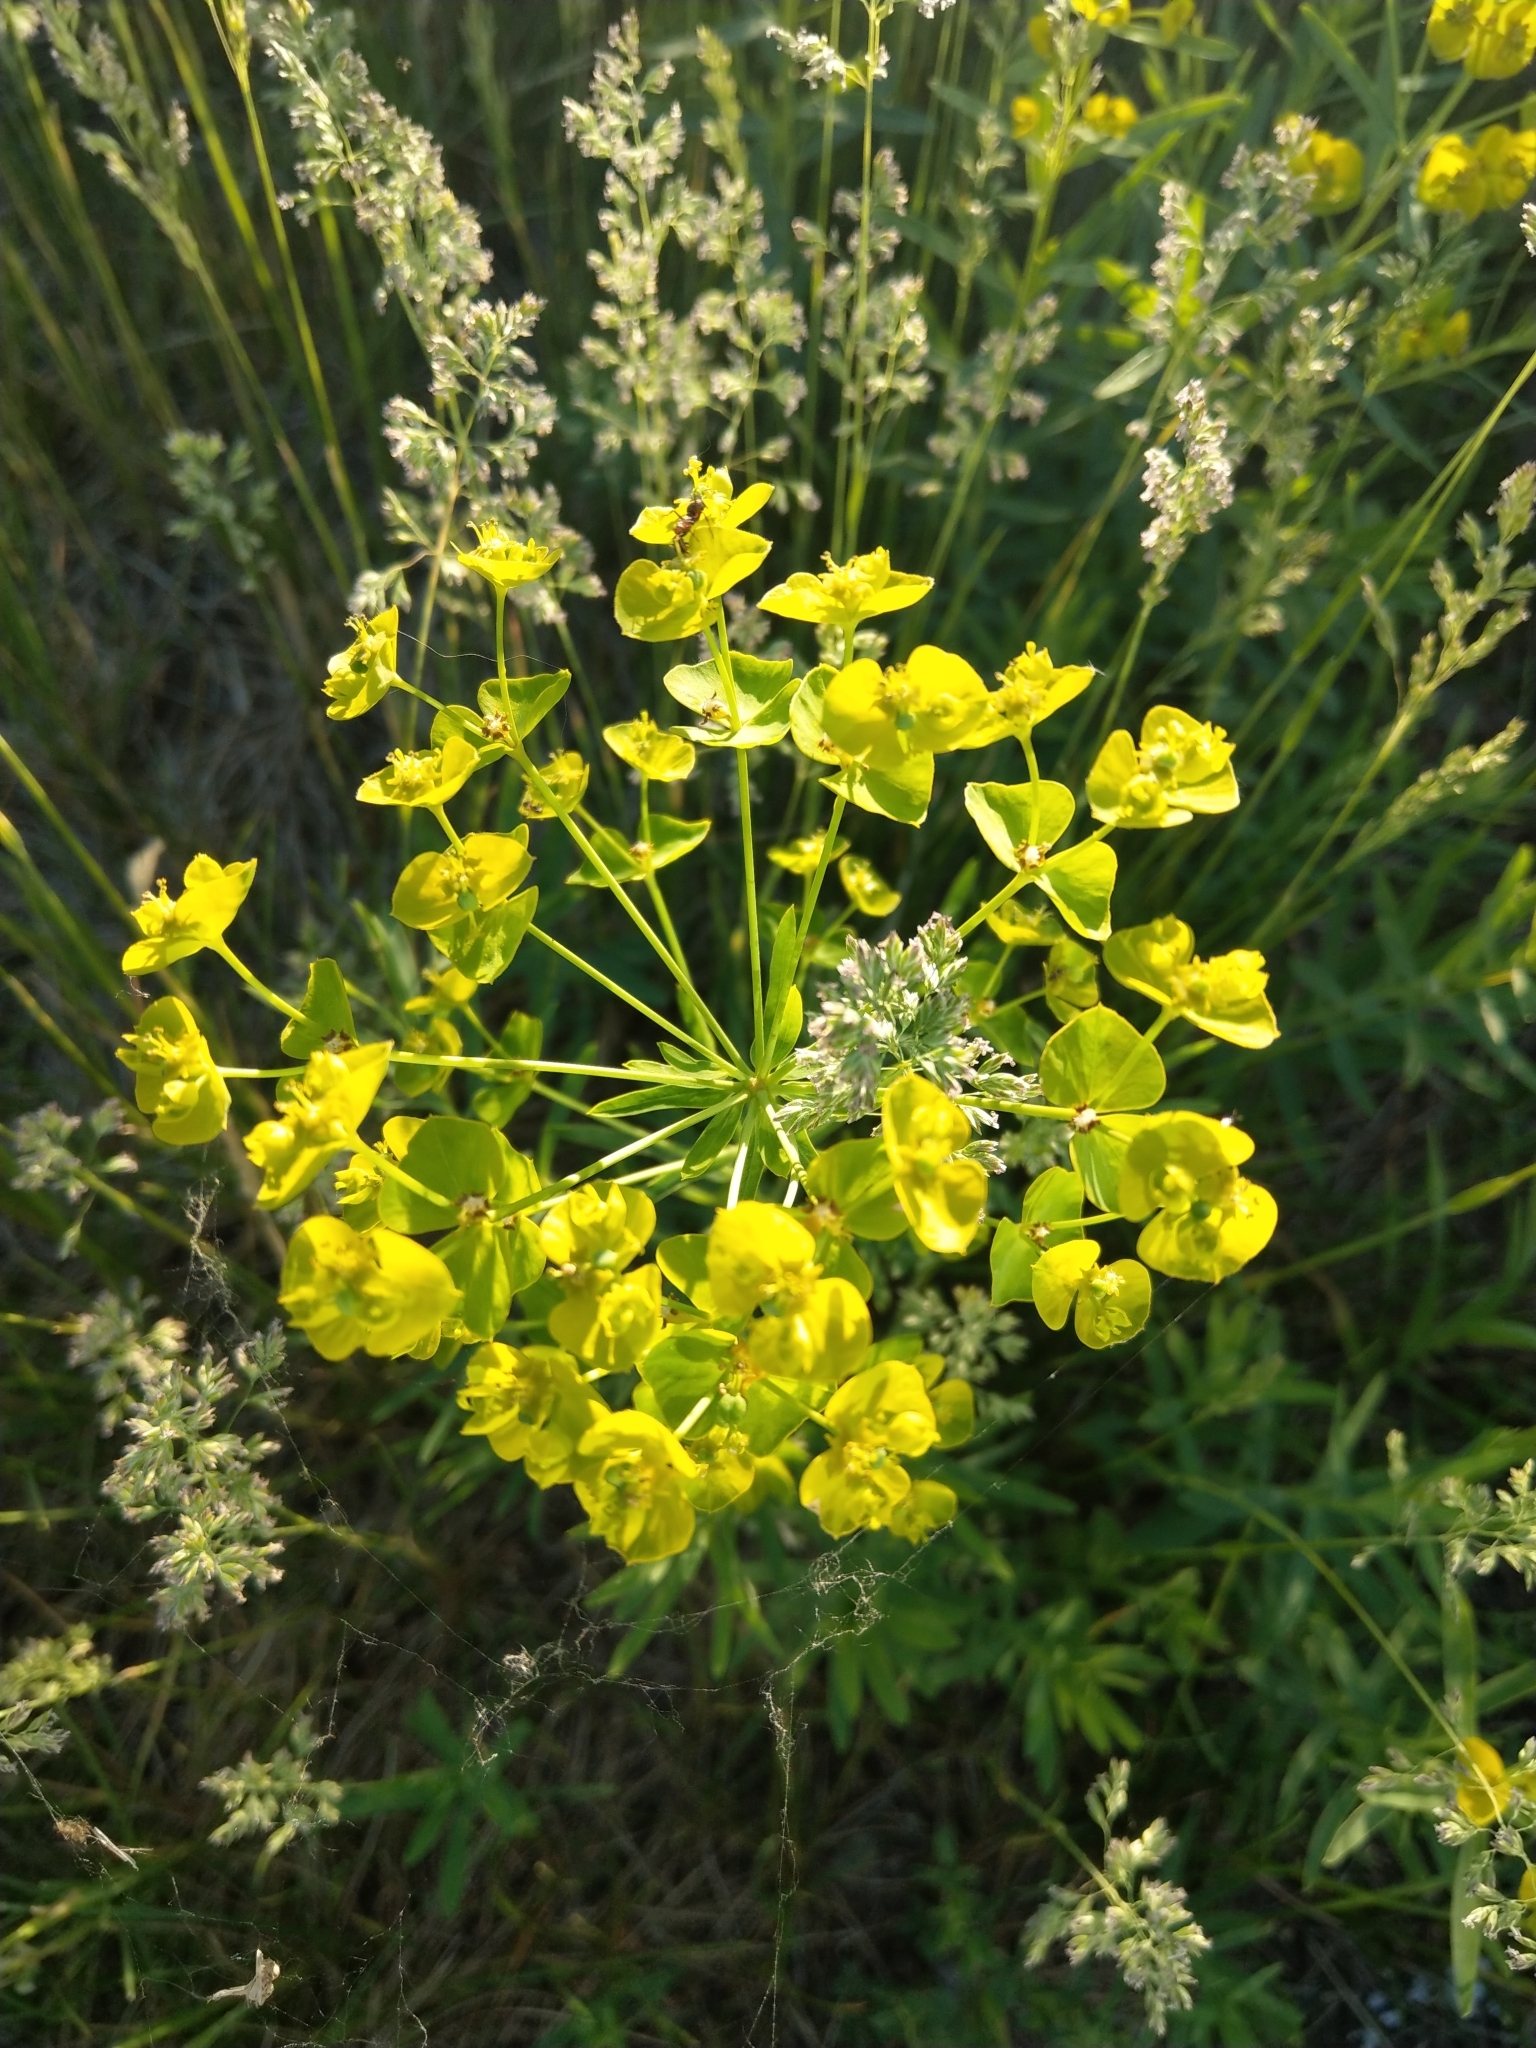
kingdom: Plantae
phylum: Tracheophyta
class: Magnoliopsida
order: Malpighiales
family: Euphorbiaceae
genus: Euphorbia
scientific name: Euphorbia virgata
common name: Leafy spurge
